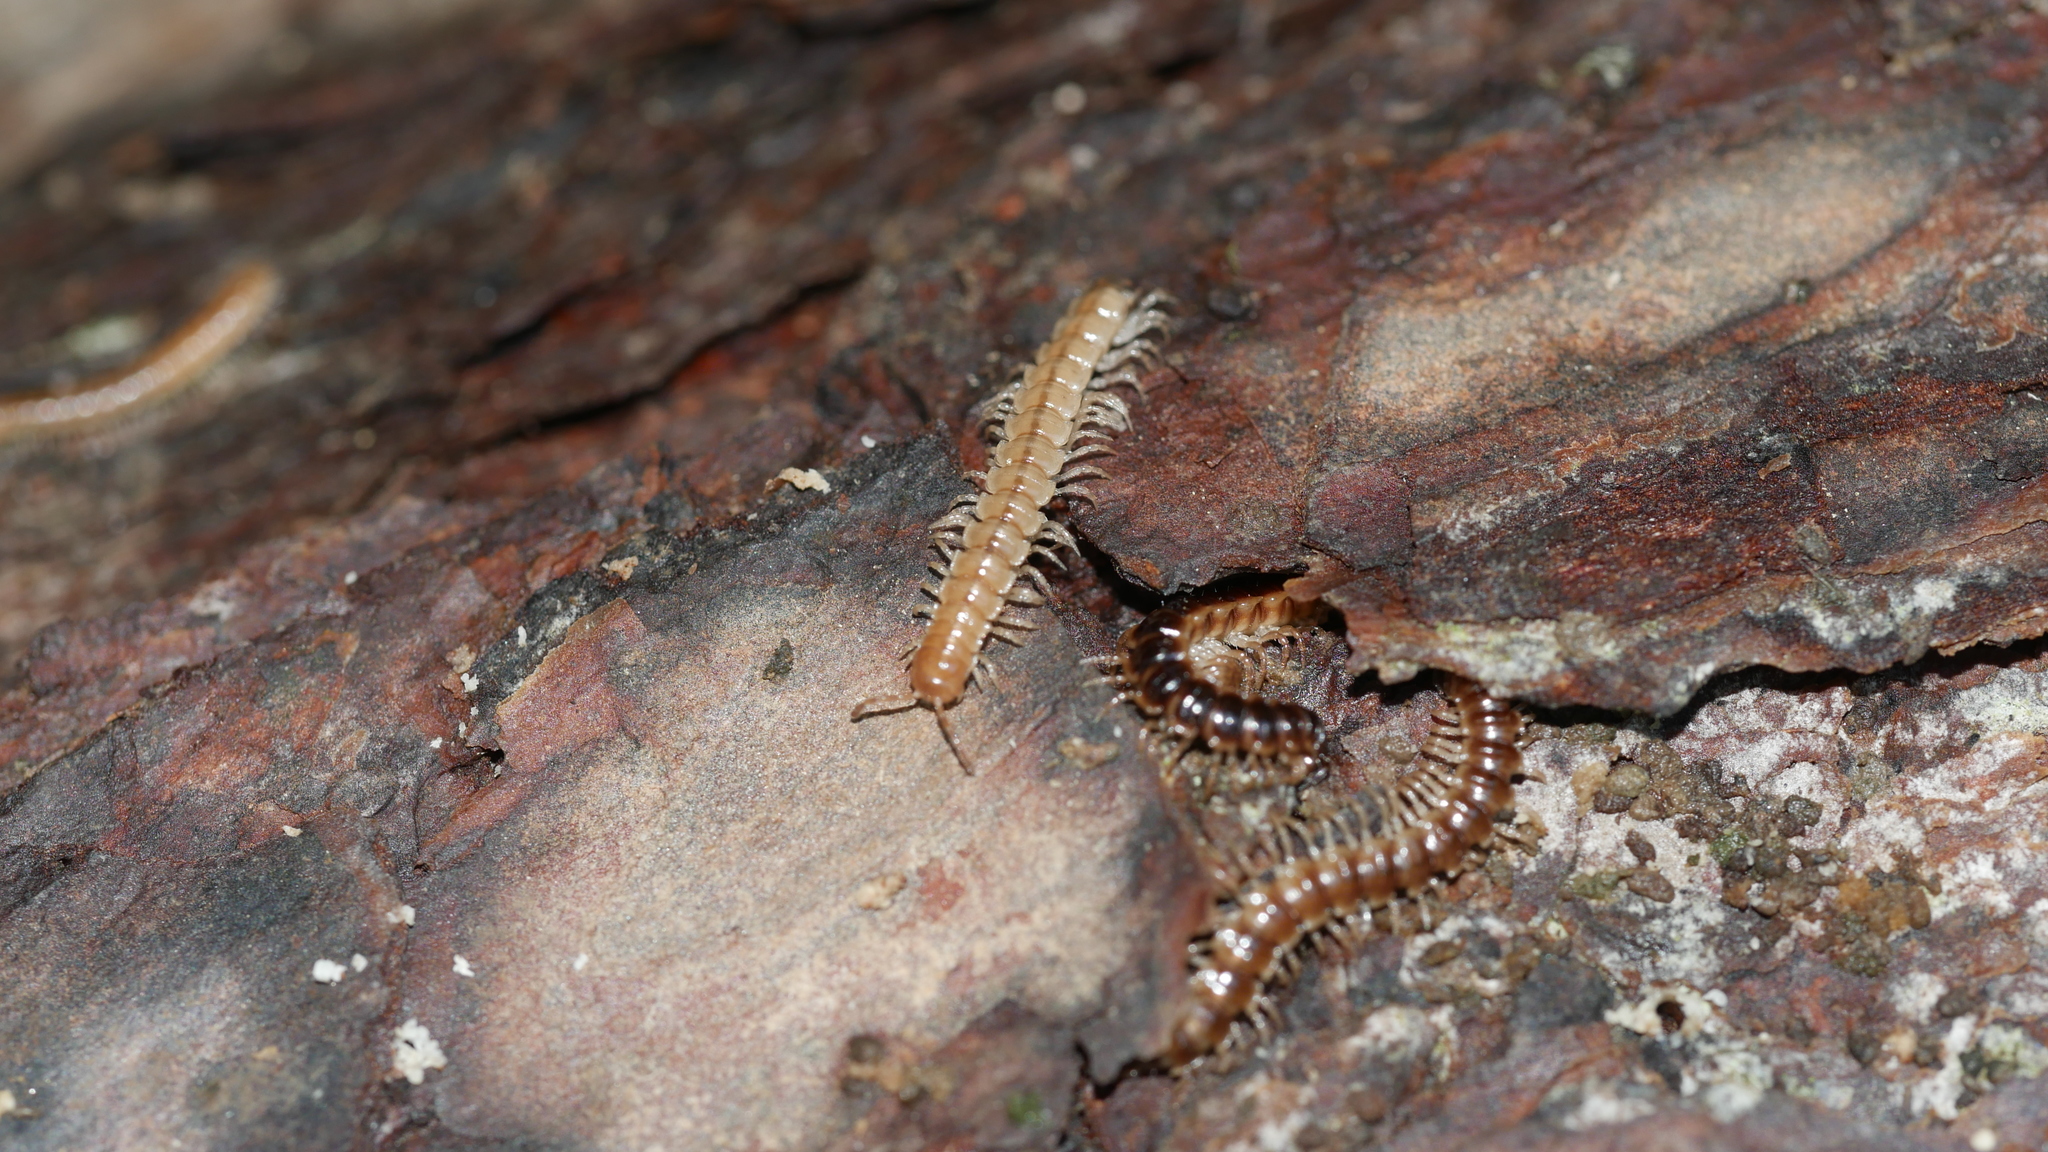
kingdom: Animalia
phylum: Arthropoda
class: Diplopoda
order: Polydesmida
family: Paradoxosomatidae
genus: Oxidus
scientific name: Oxidus gracilis
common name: Greenhouse millipede
